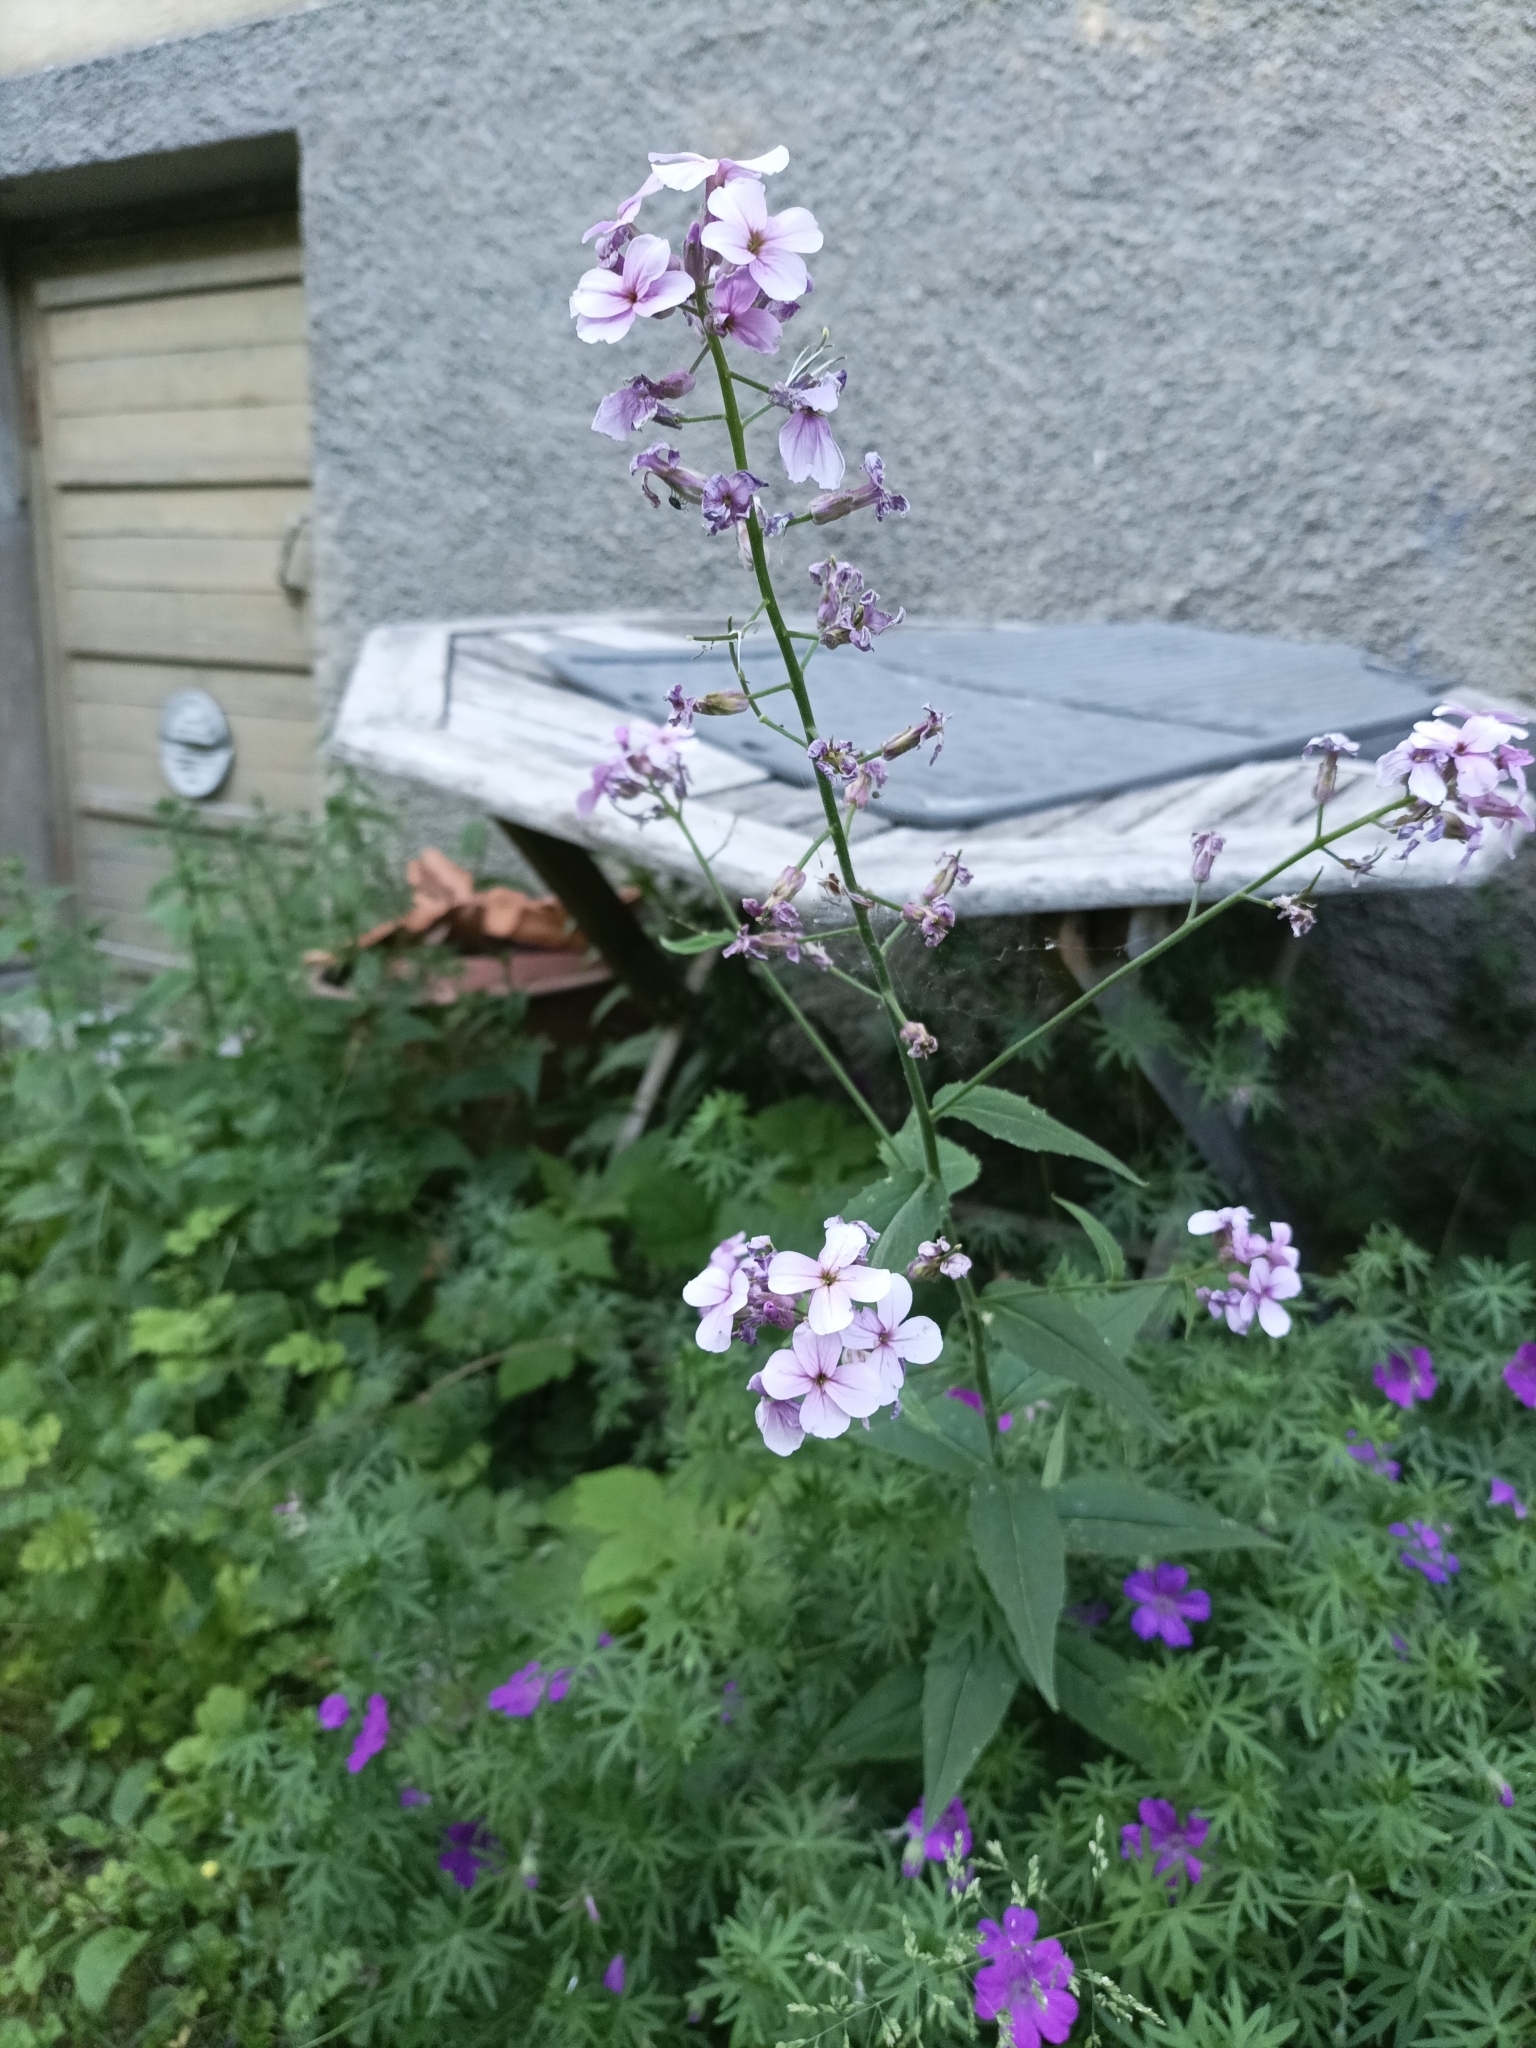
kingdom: Plantae
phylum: Tracheophyta
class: Magnoliopsida
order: Saxifragales
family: Crassulaceae
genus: Sedum
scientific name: Sedum acre
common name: Biting stonecrop
